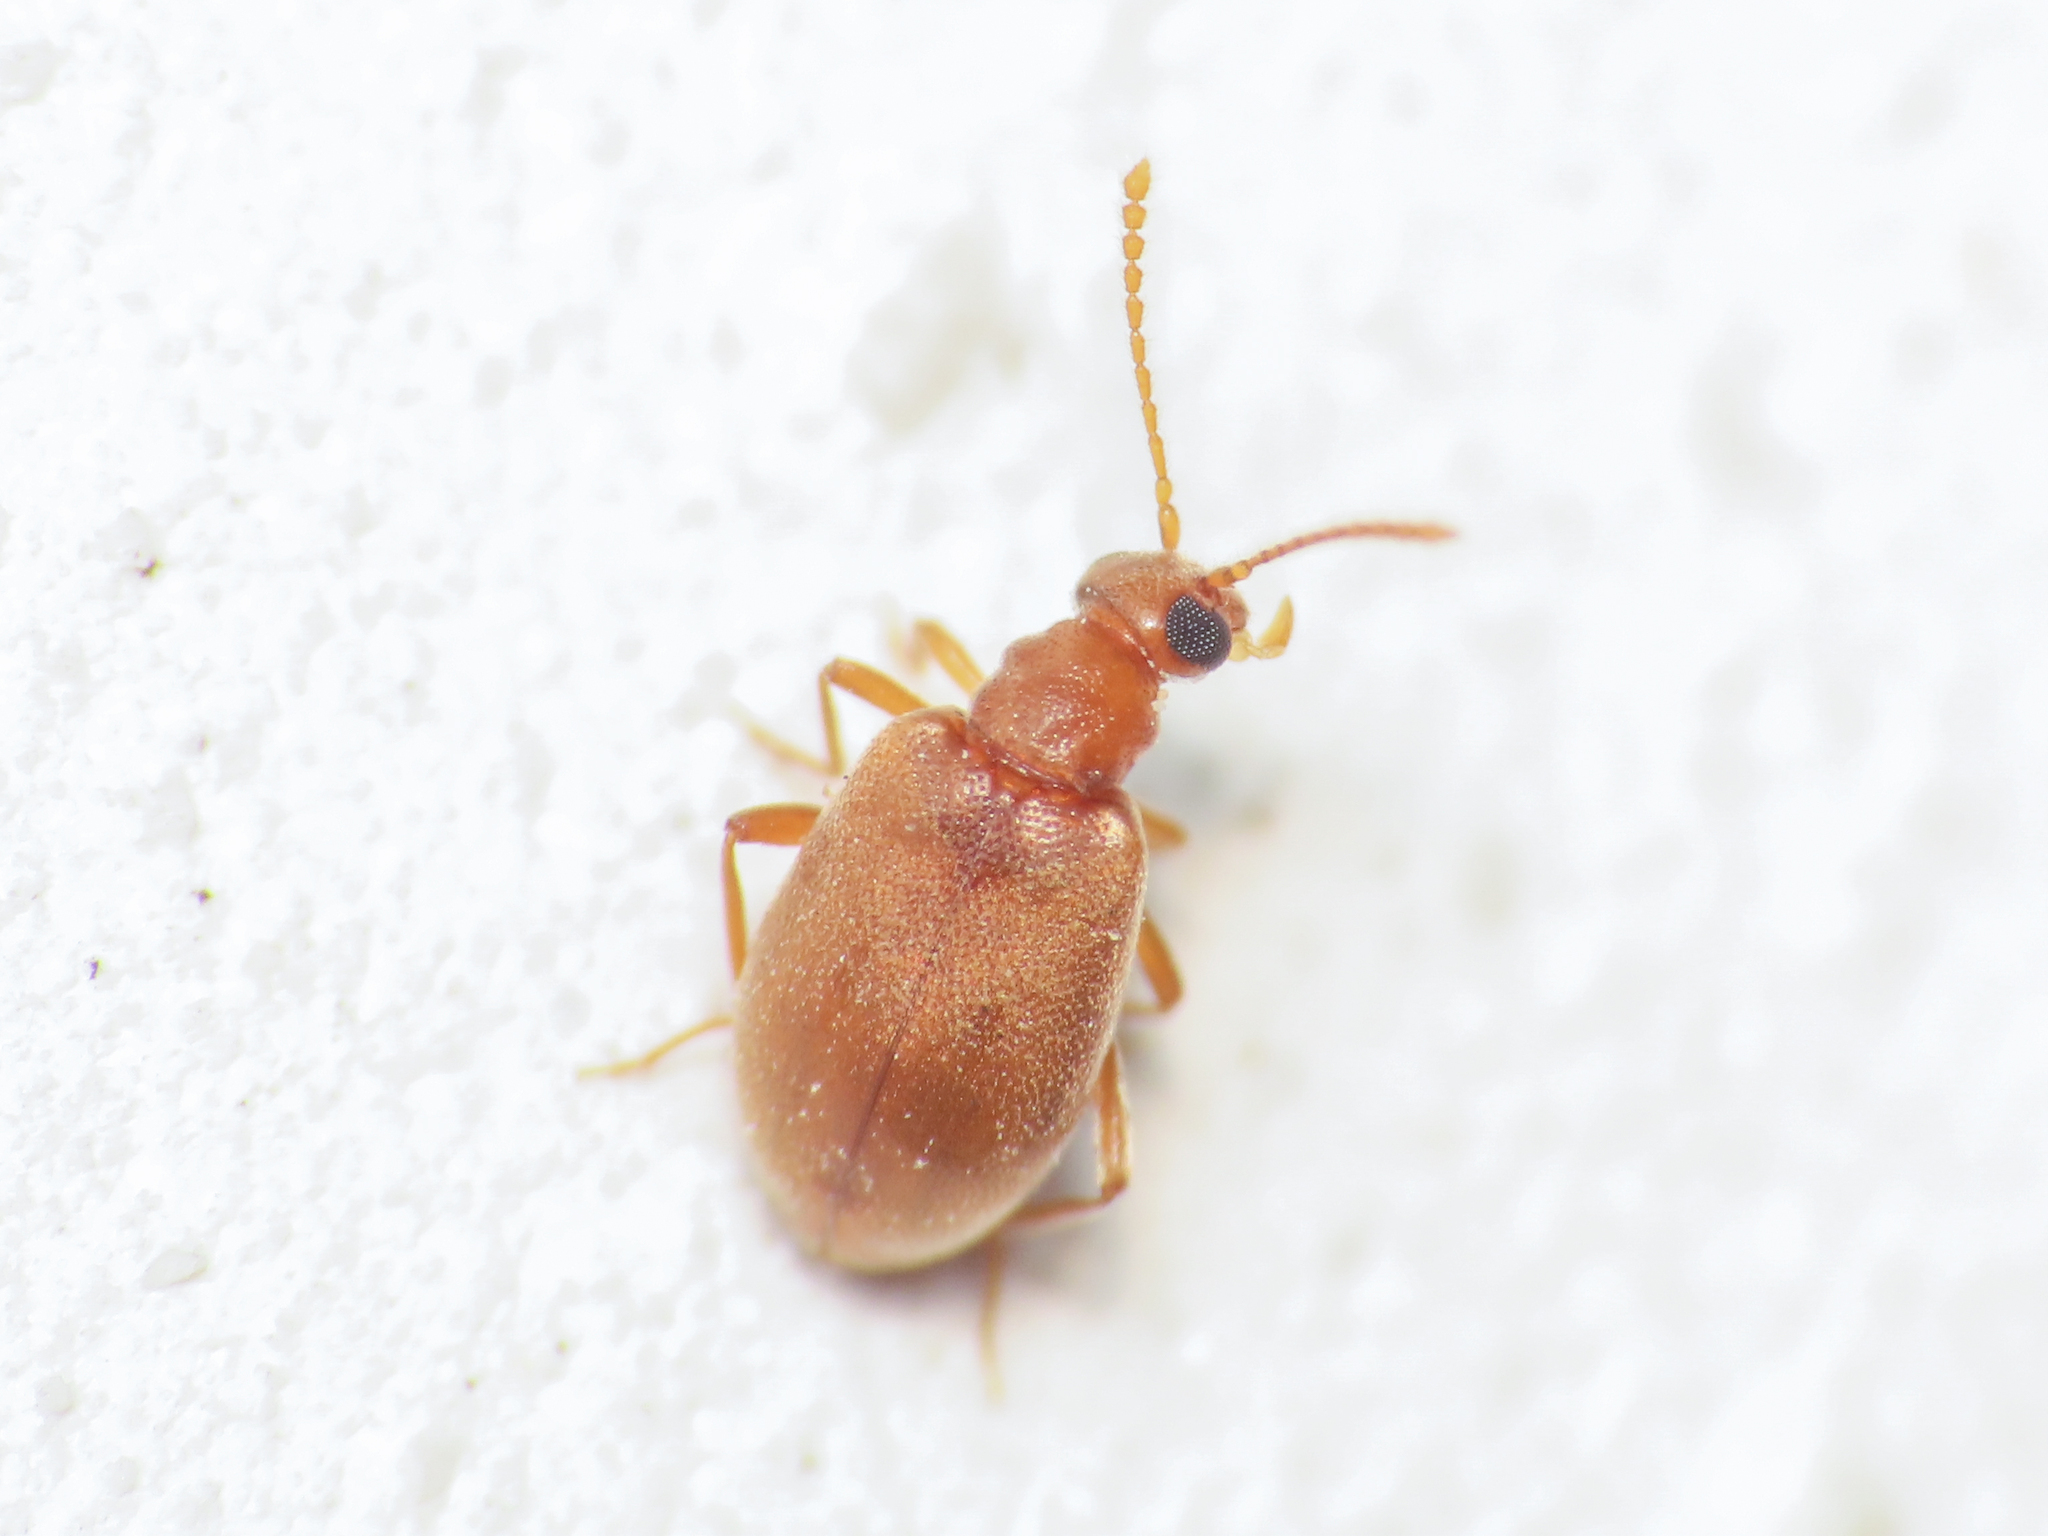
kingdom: Animalia
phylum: Arthropoda
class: Insecta
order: Coleoptera
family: Aderidae
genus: Gompelia
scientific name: Gompelia flaveola
